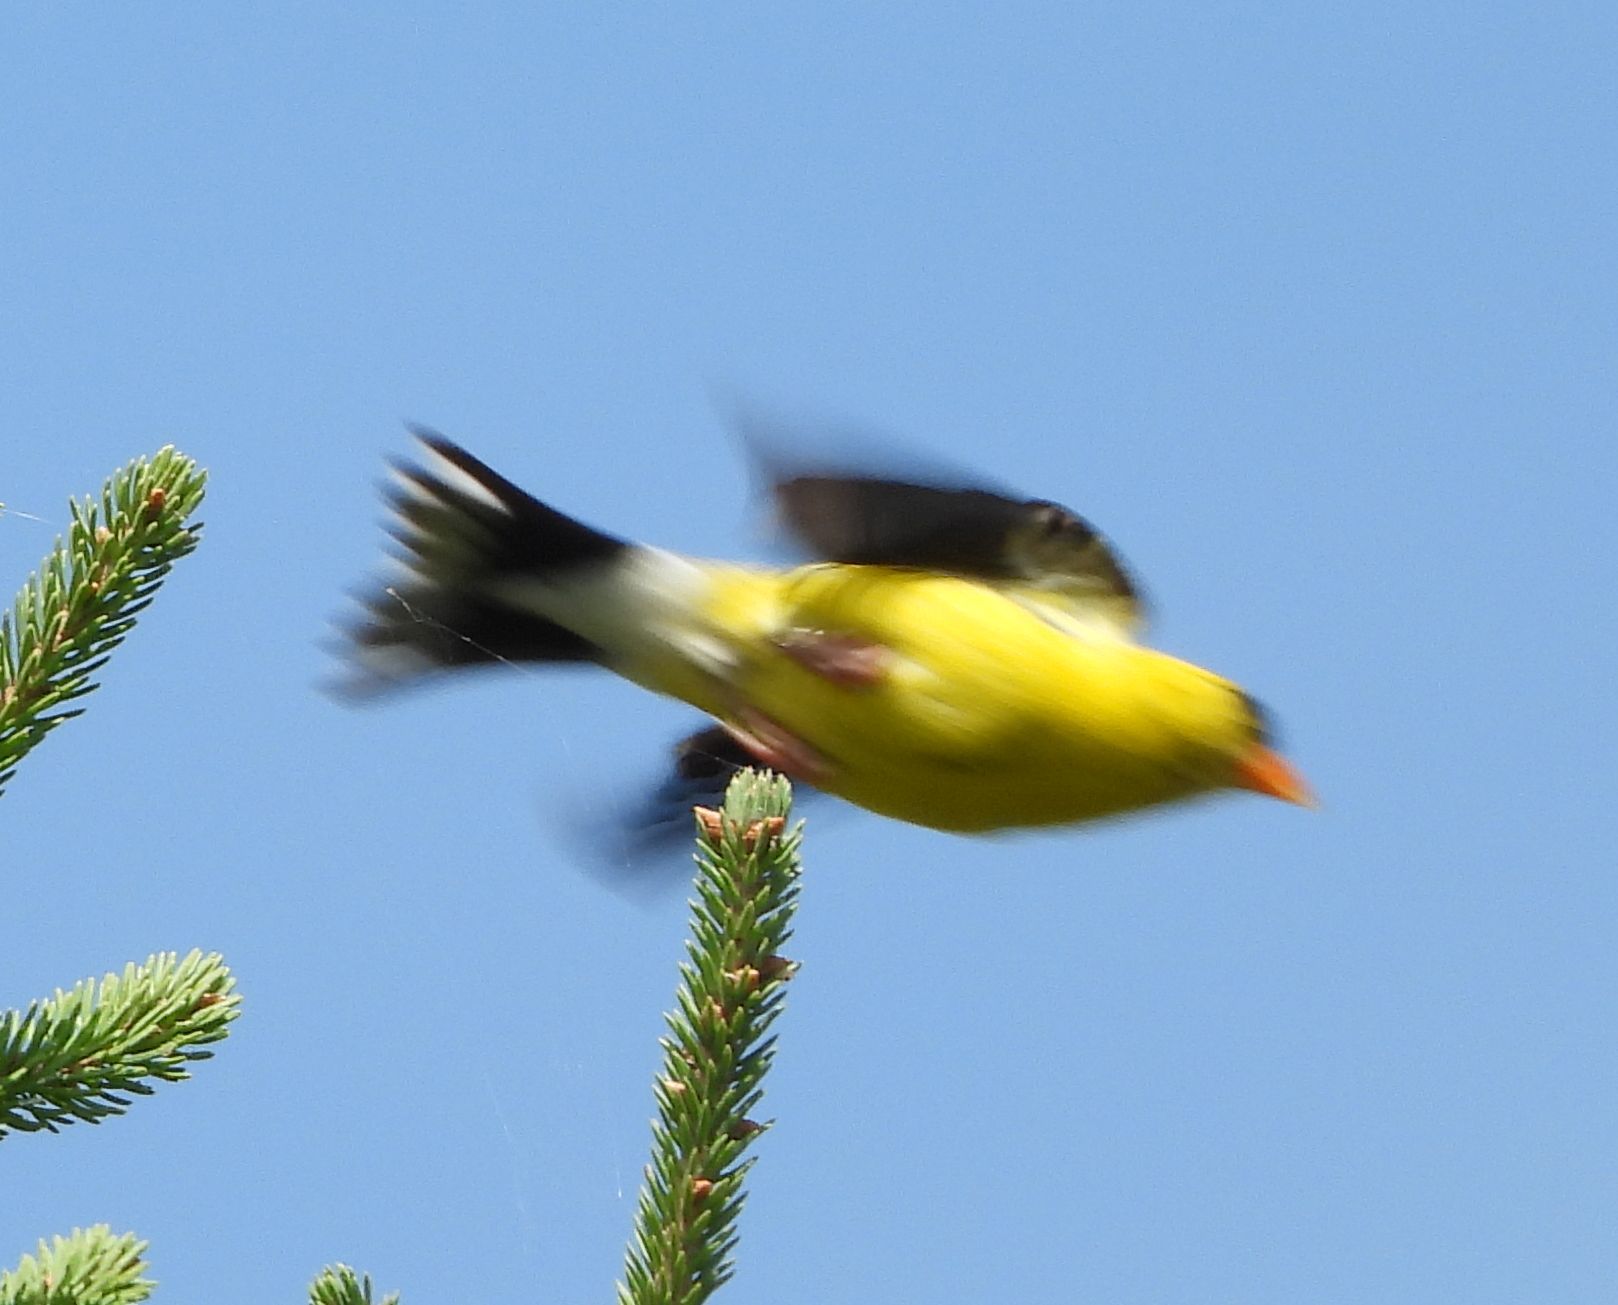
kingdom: Animalia
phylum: Chordata
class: Aves
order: Passeriformes
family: Fringillidae
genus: Spinus
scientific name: Spinus tristis
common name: American goldfinch
